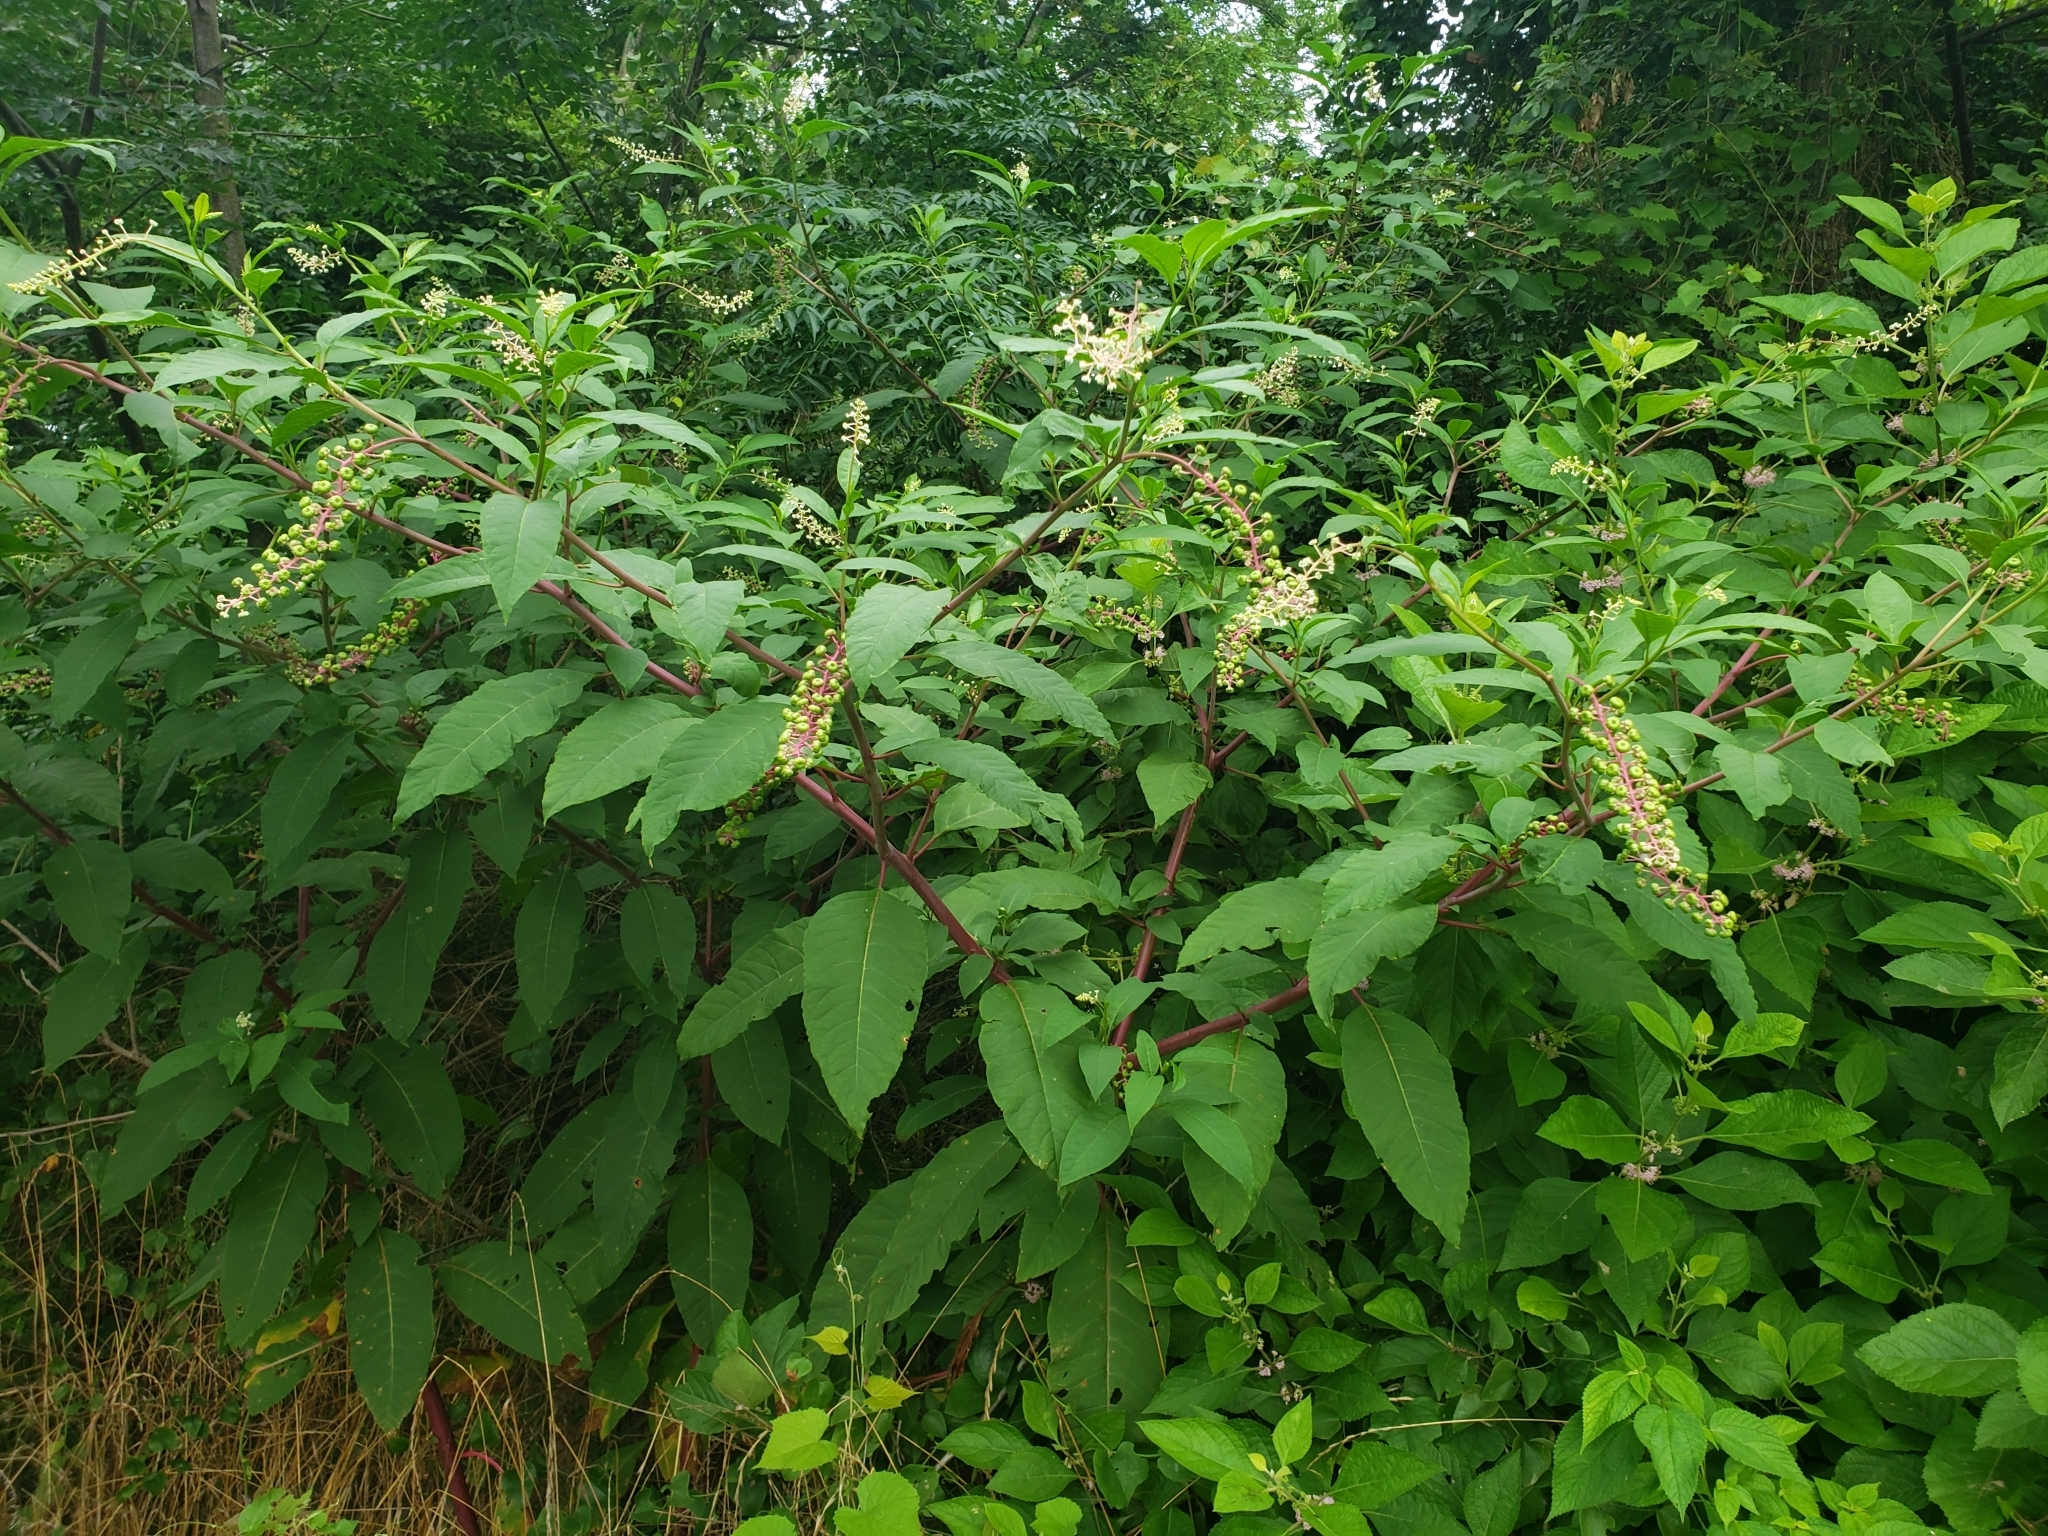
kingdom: Plantae
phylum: Tracheophyta
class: Magnoliopsida
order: Caryophyllales
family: Phytolaccaceae
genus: Phytolacca
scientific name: Phytolacca americana
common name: American pokeweed
